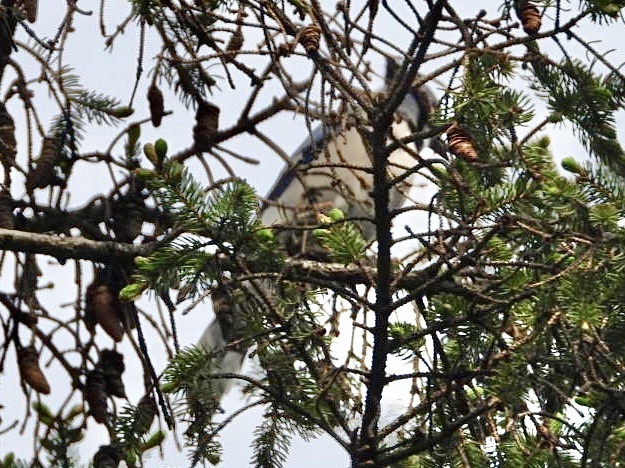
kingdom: Animalia
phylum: Chordata
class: Aves
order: Passeriformes
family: Corvidae
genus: Cyanocitta
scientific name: Cyanocitta cristata
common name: Blue jay
